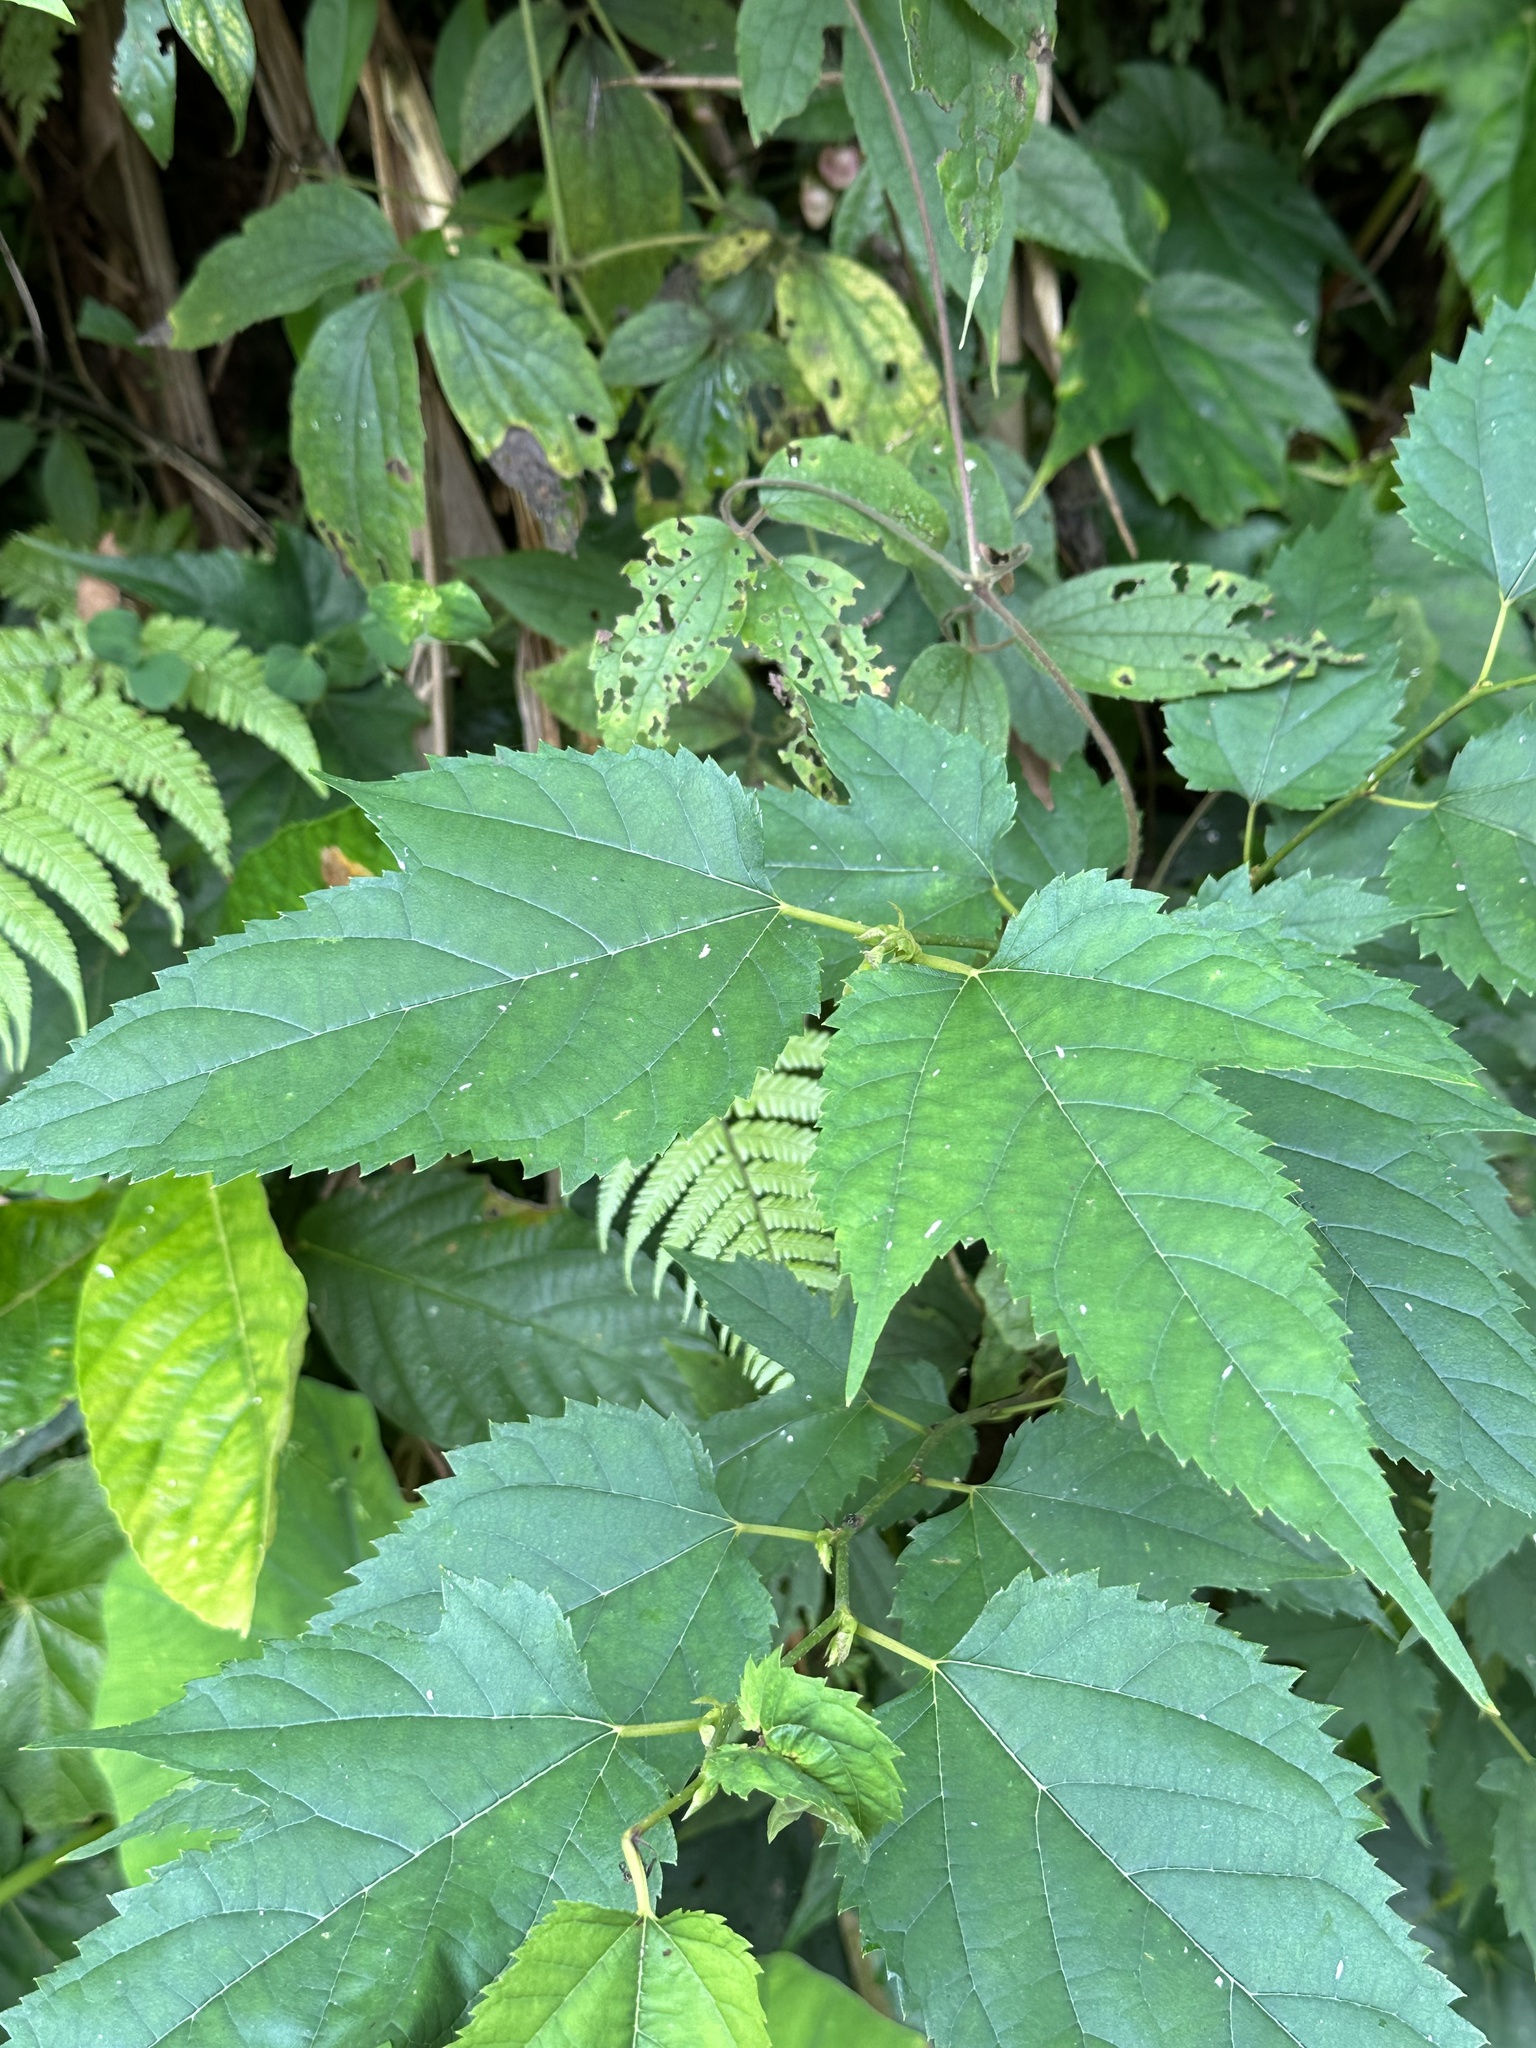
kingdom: Plantae
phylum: Tracheophyta
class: Magnoliopsida
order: Rosales
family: Moraceae
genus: Morus
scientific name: Morus indica
